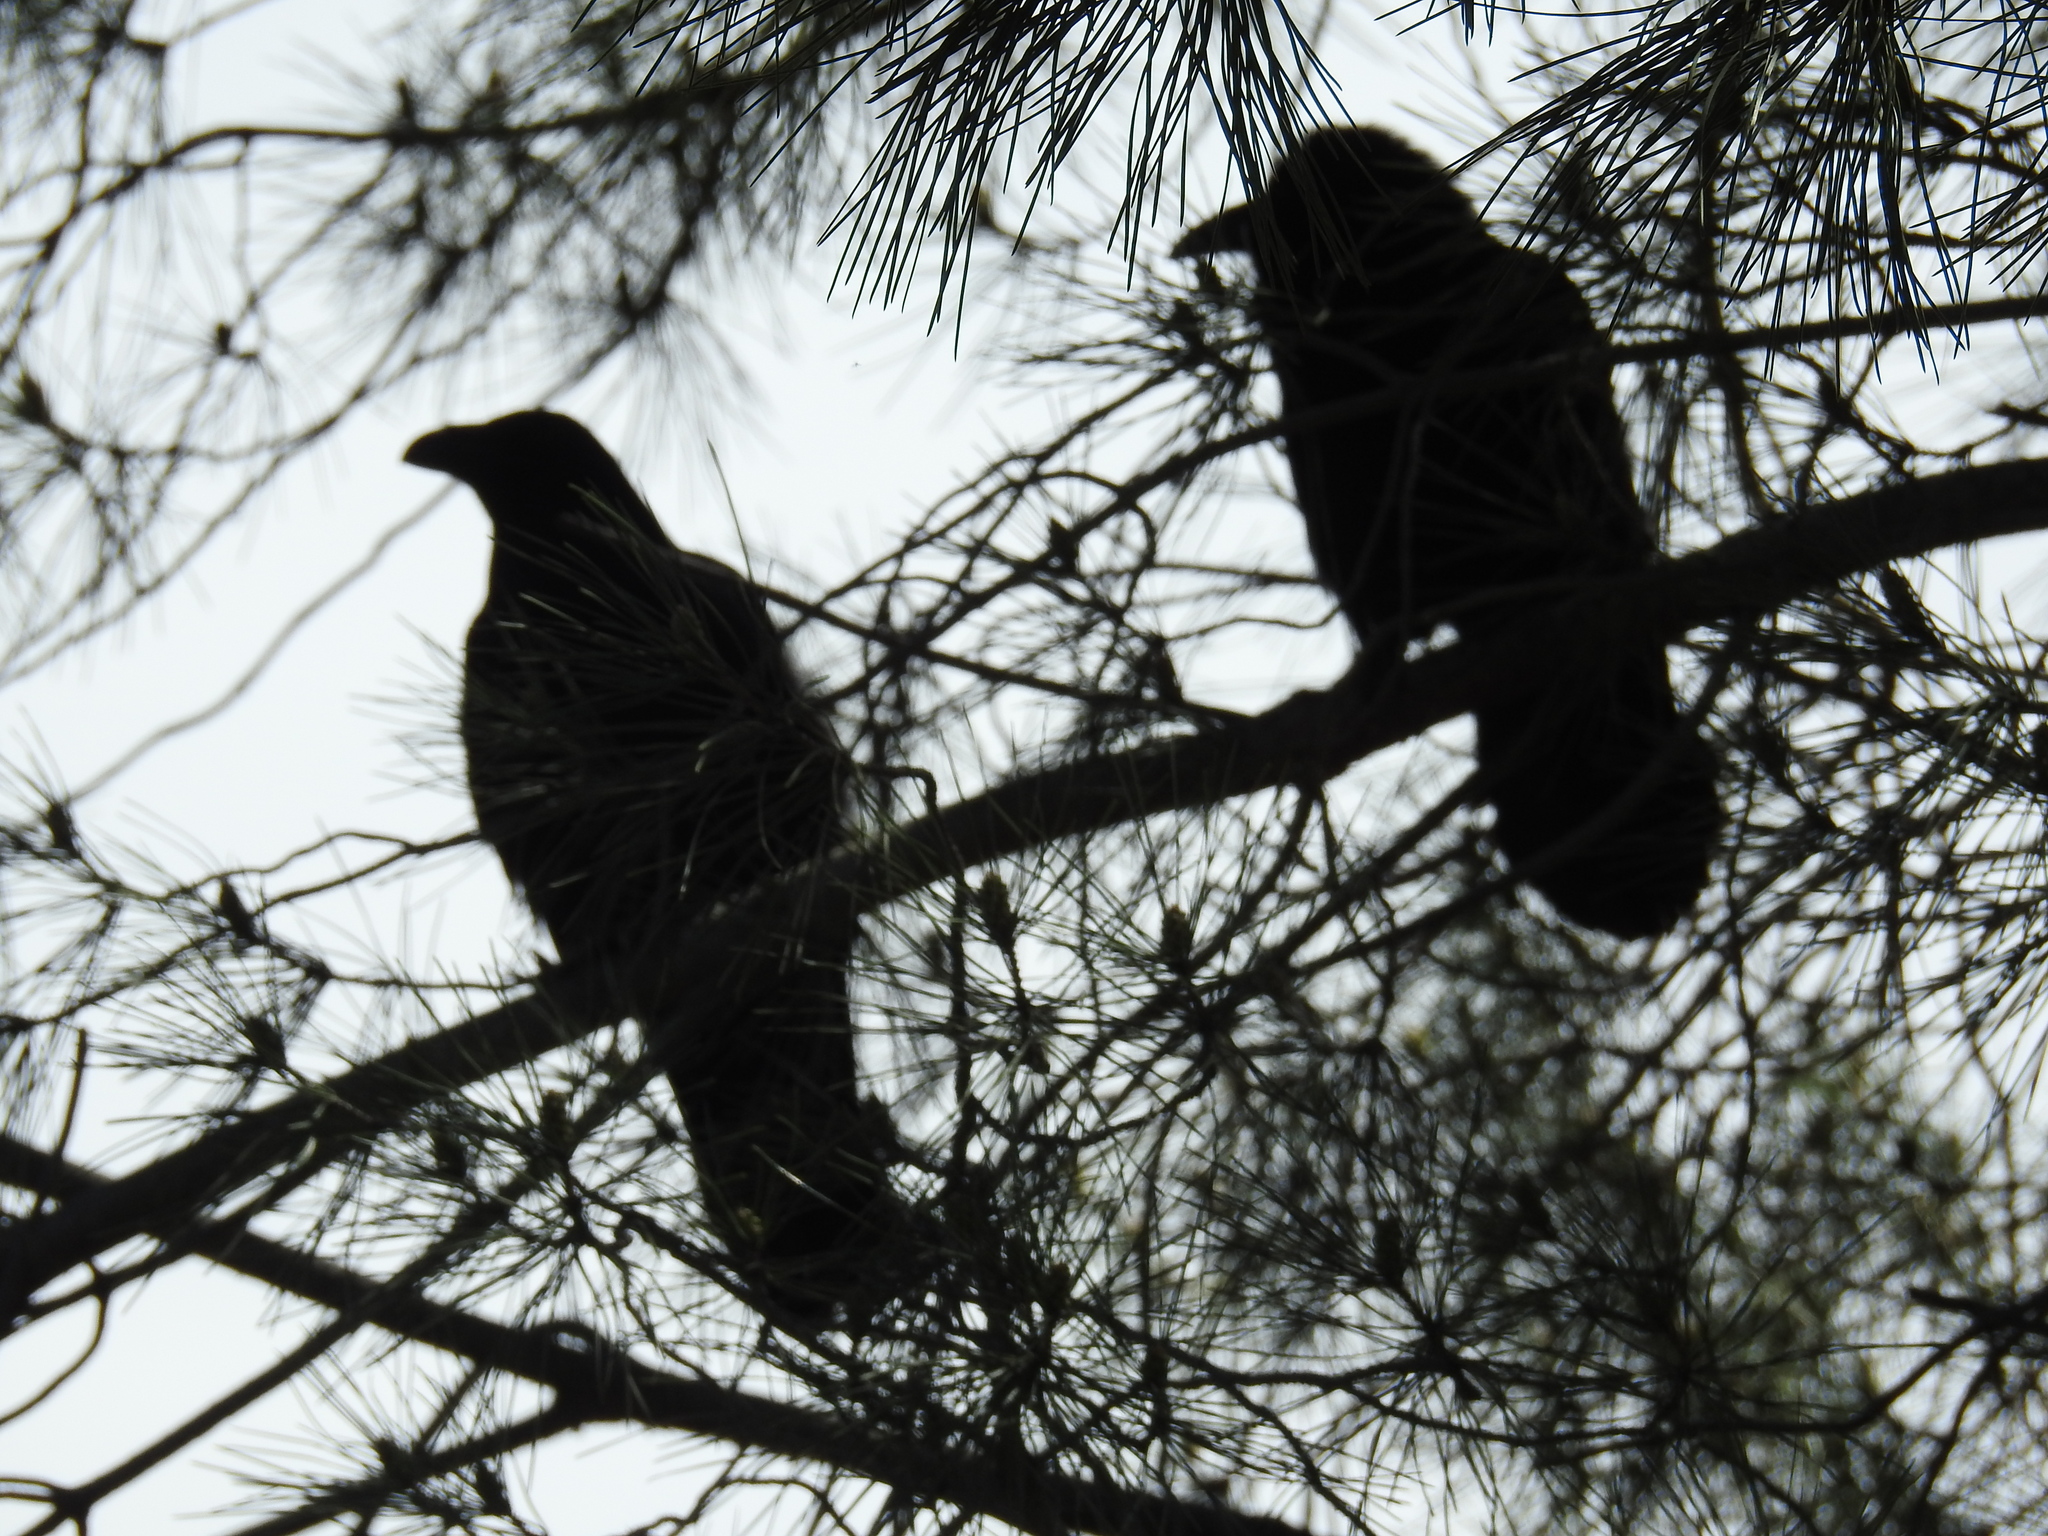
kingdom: Animalia
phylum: Chordata
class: Aves
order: Passeriformes
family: Corvidae
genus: Corvus
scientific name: Corvus corax
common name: Common raven
